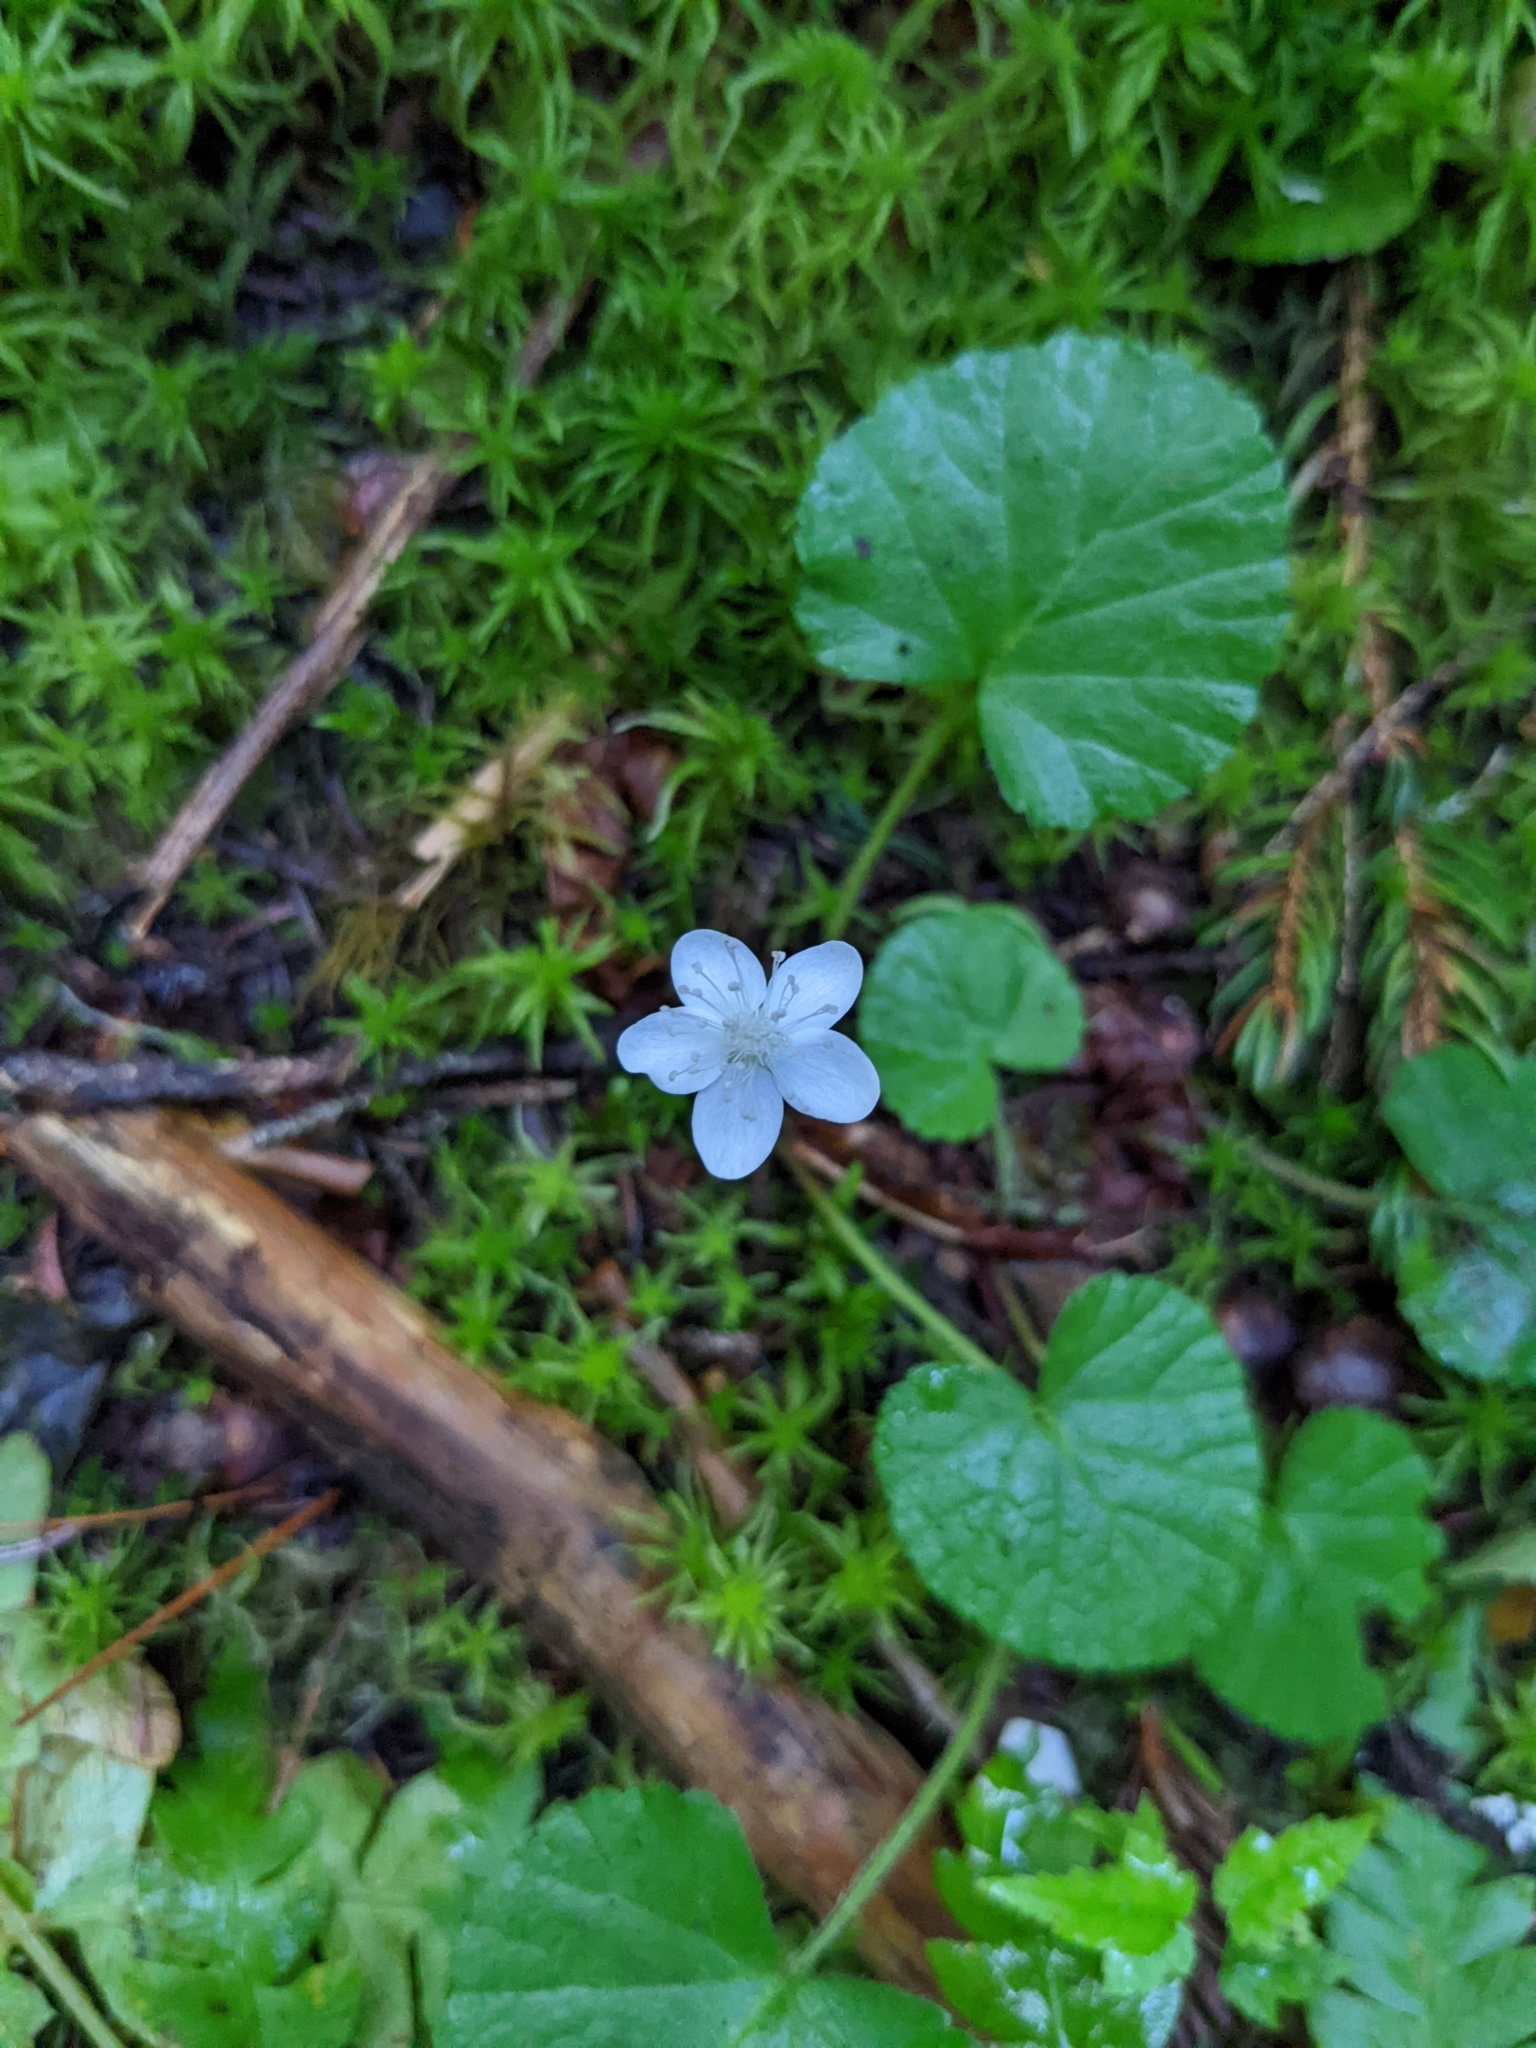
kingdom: Plantae
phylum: Tracheophyta
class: Magnoliopsida
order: Rosales
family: Rosaceae
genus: Dalibarda
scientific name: Dalibarda repens
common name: Dewdrop
